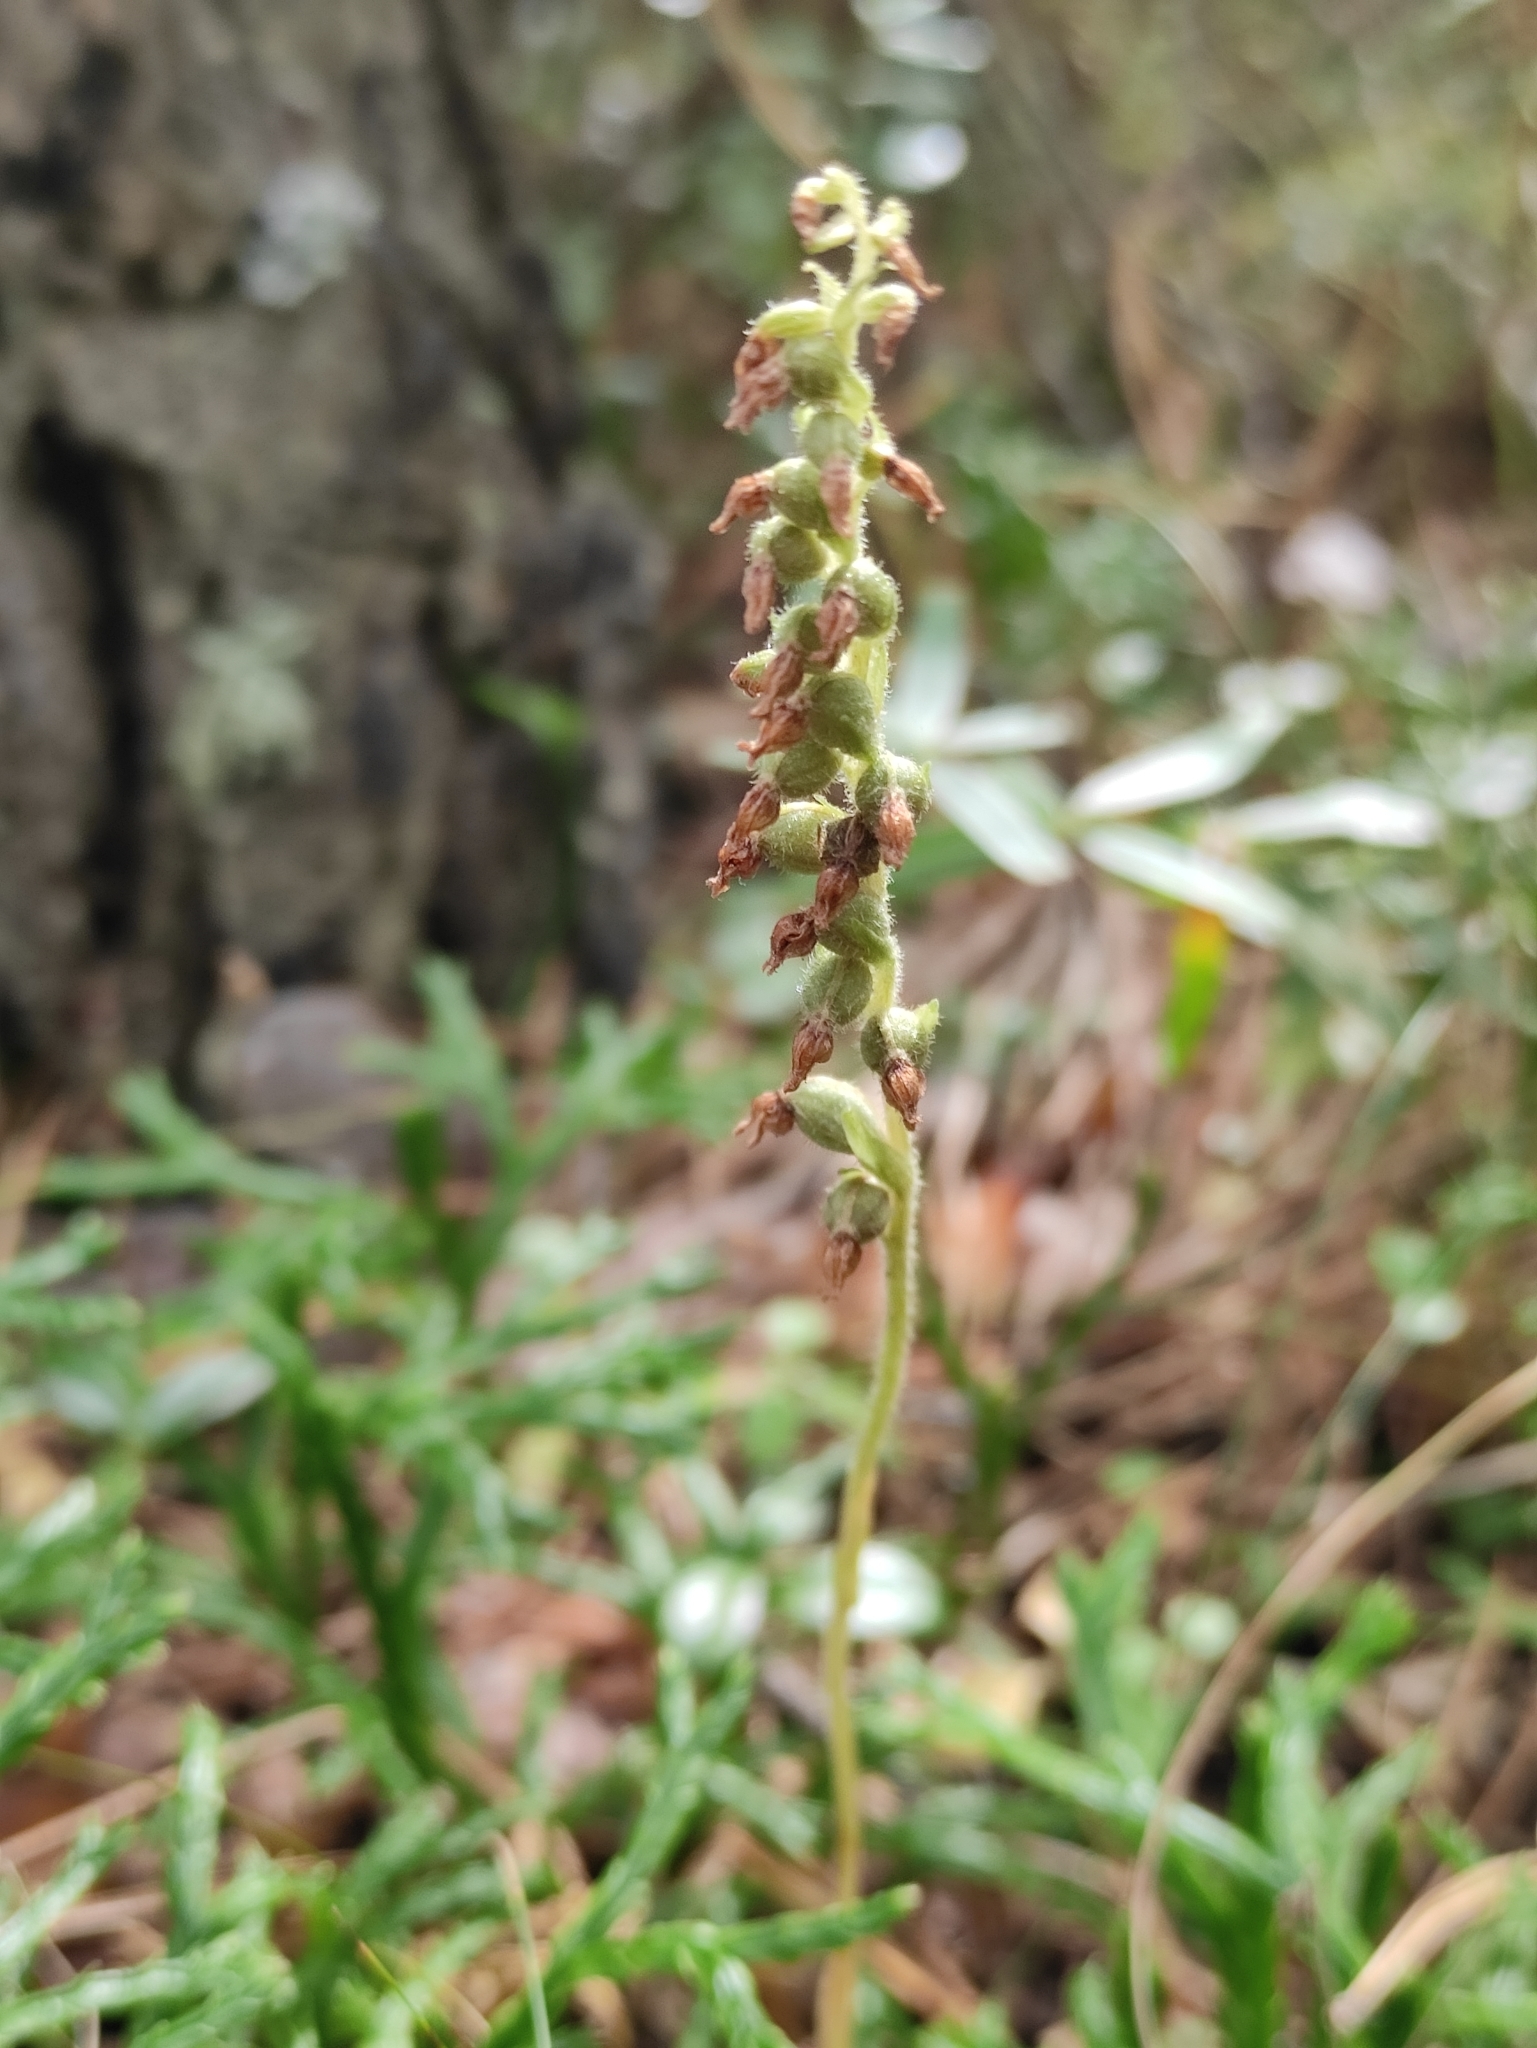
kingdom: Plantae
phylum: Tracheophyta
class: Liliopsida
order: Asparagales
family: Orchidaceae
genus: Goodyera
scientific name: Goodyera repens
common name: Creeping lady's-tresses
